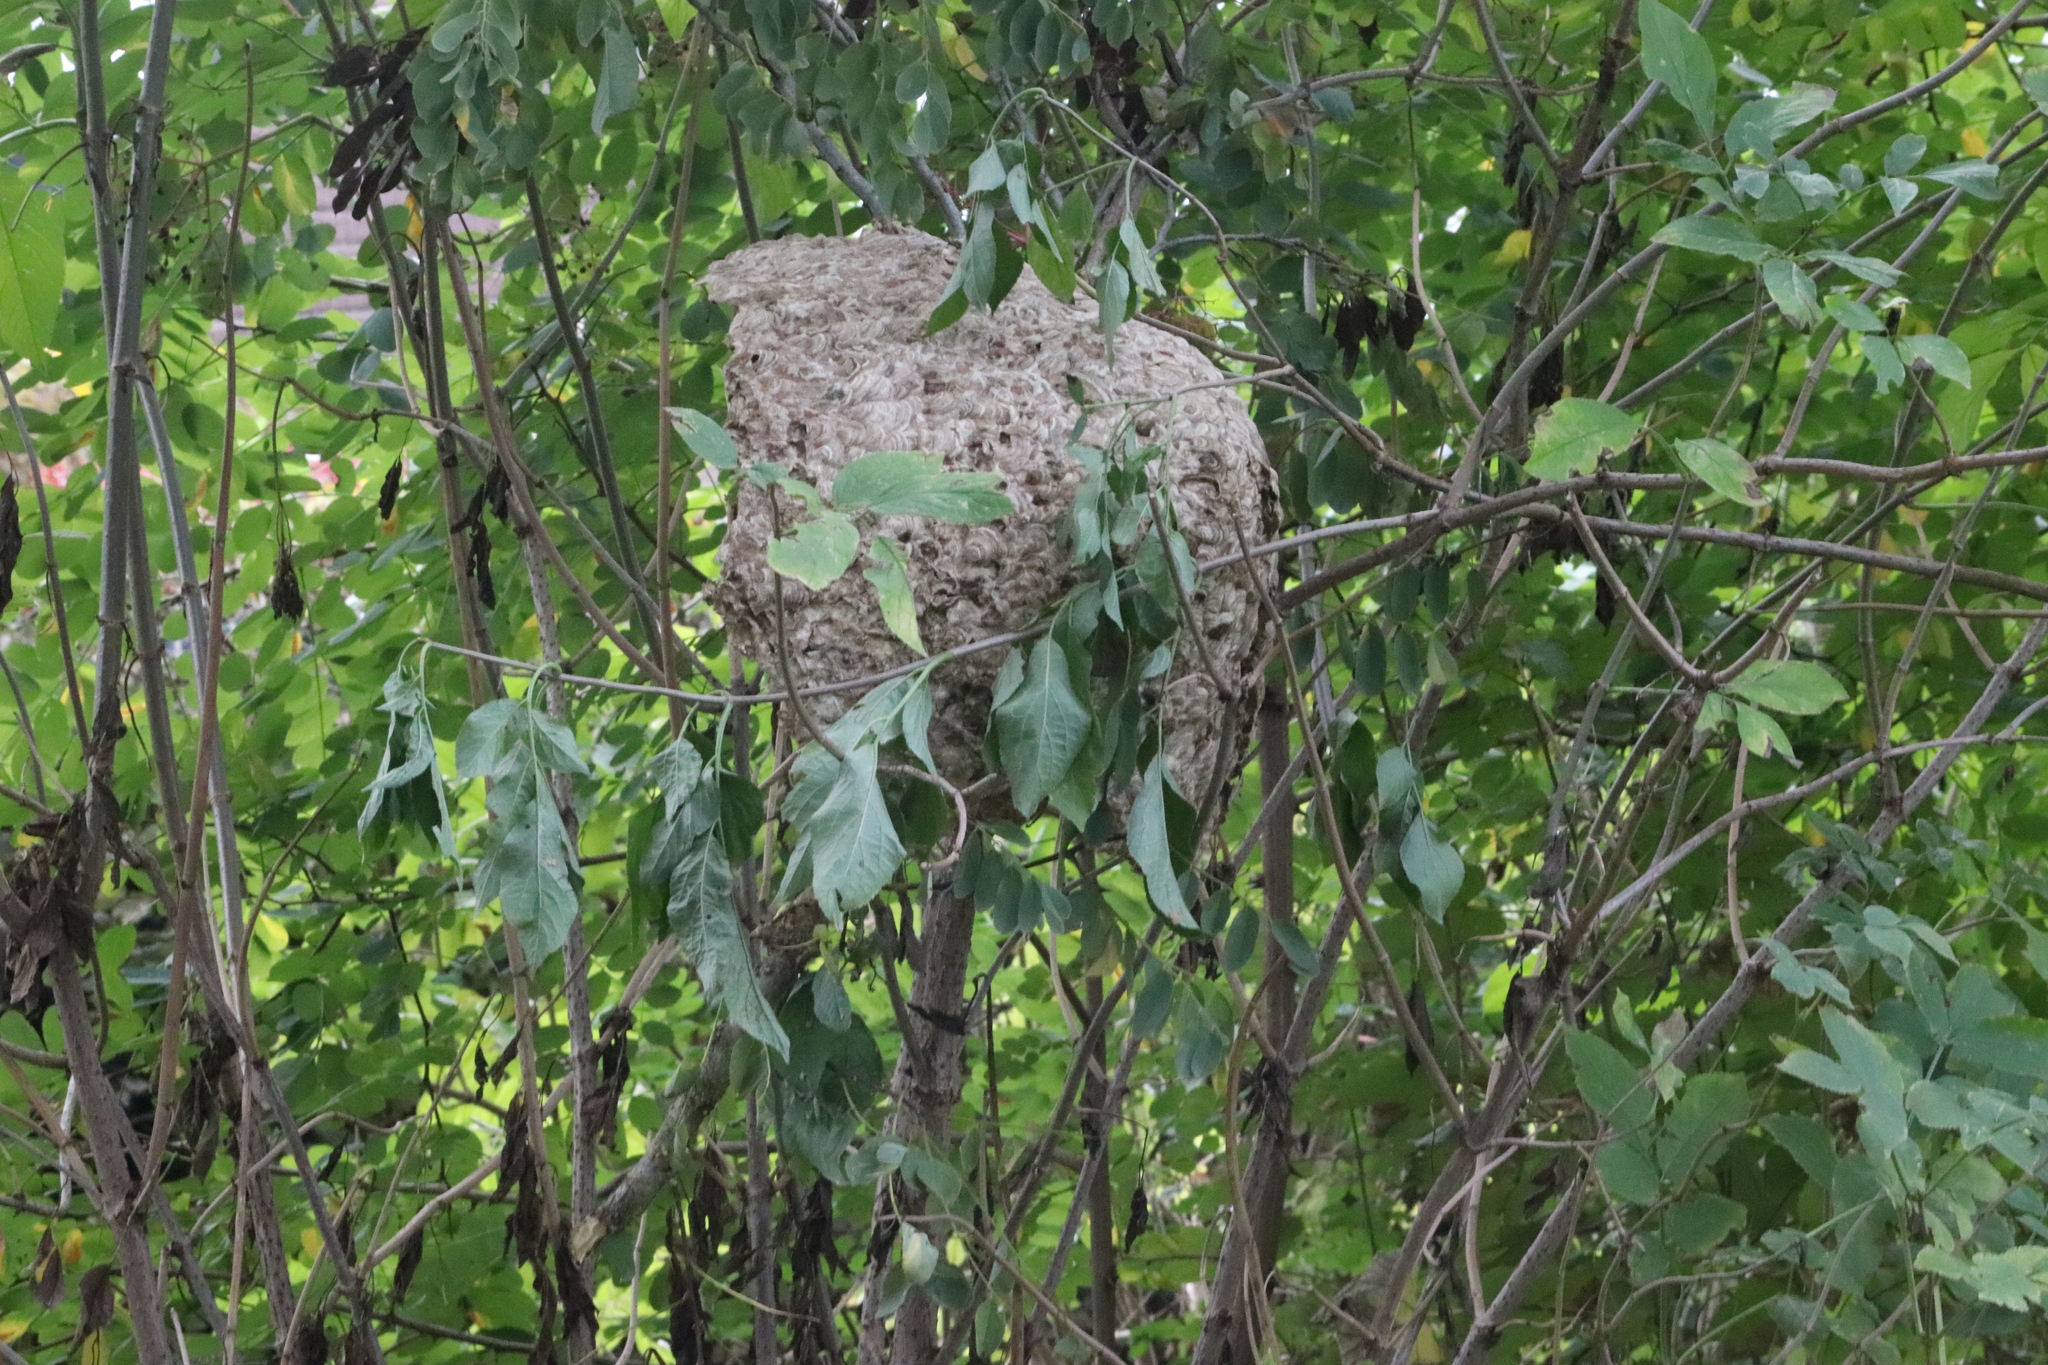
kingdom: Animalia
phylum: Arthropoda
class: Insecta
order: Hymenoptera
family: Vespidae
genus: Vespa
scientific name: Vespa velutina
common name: Asian hornet
